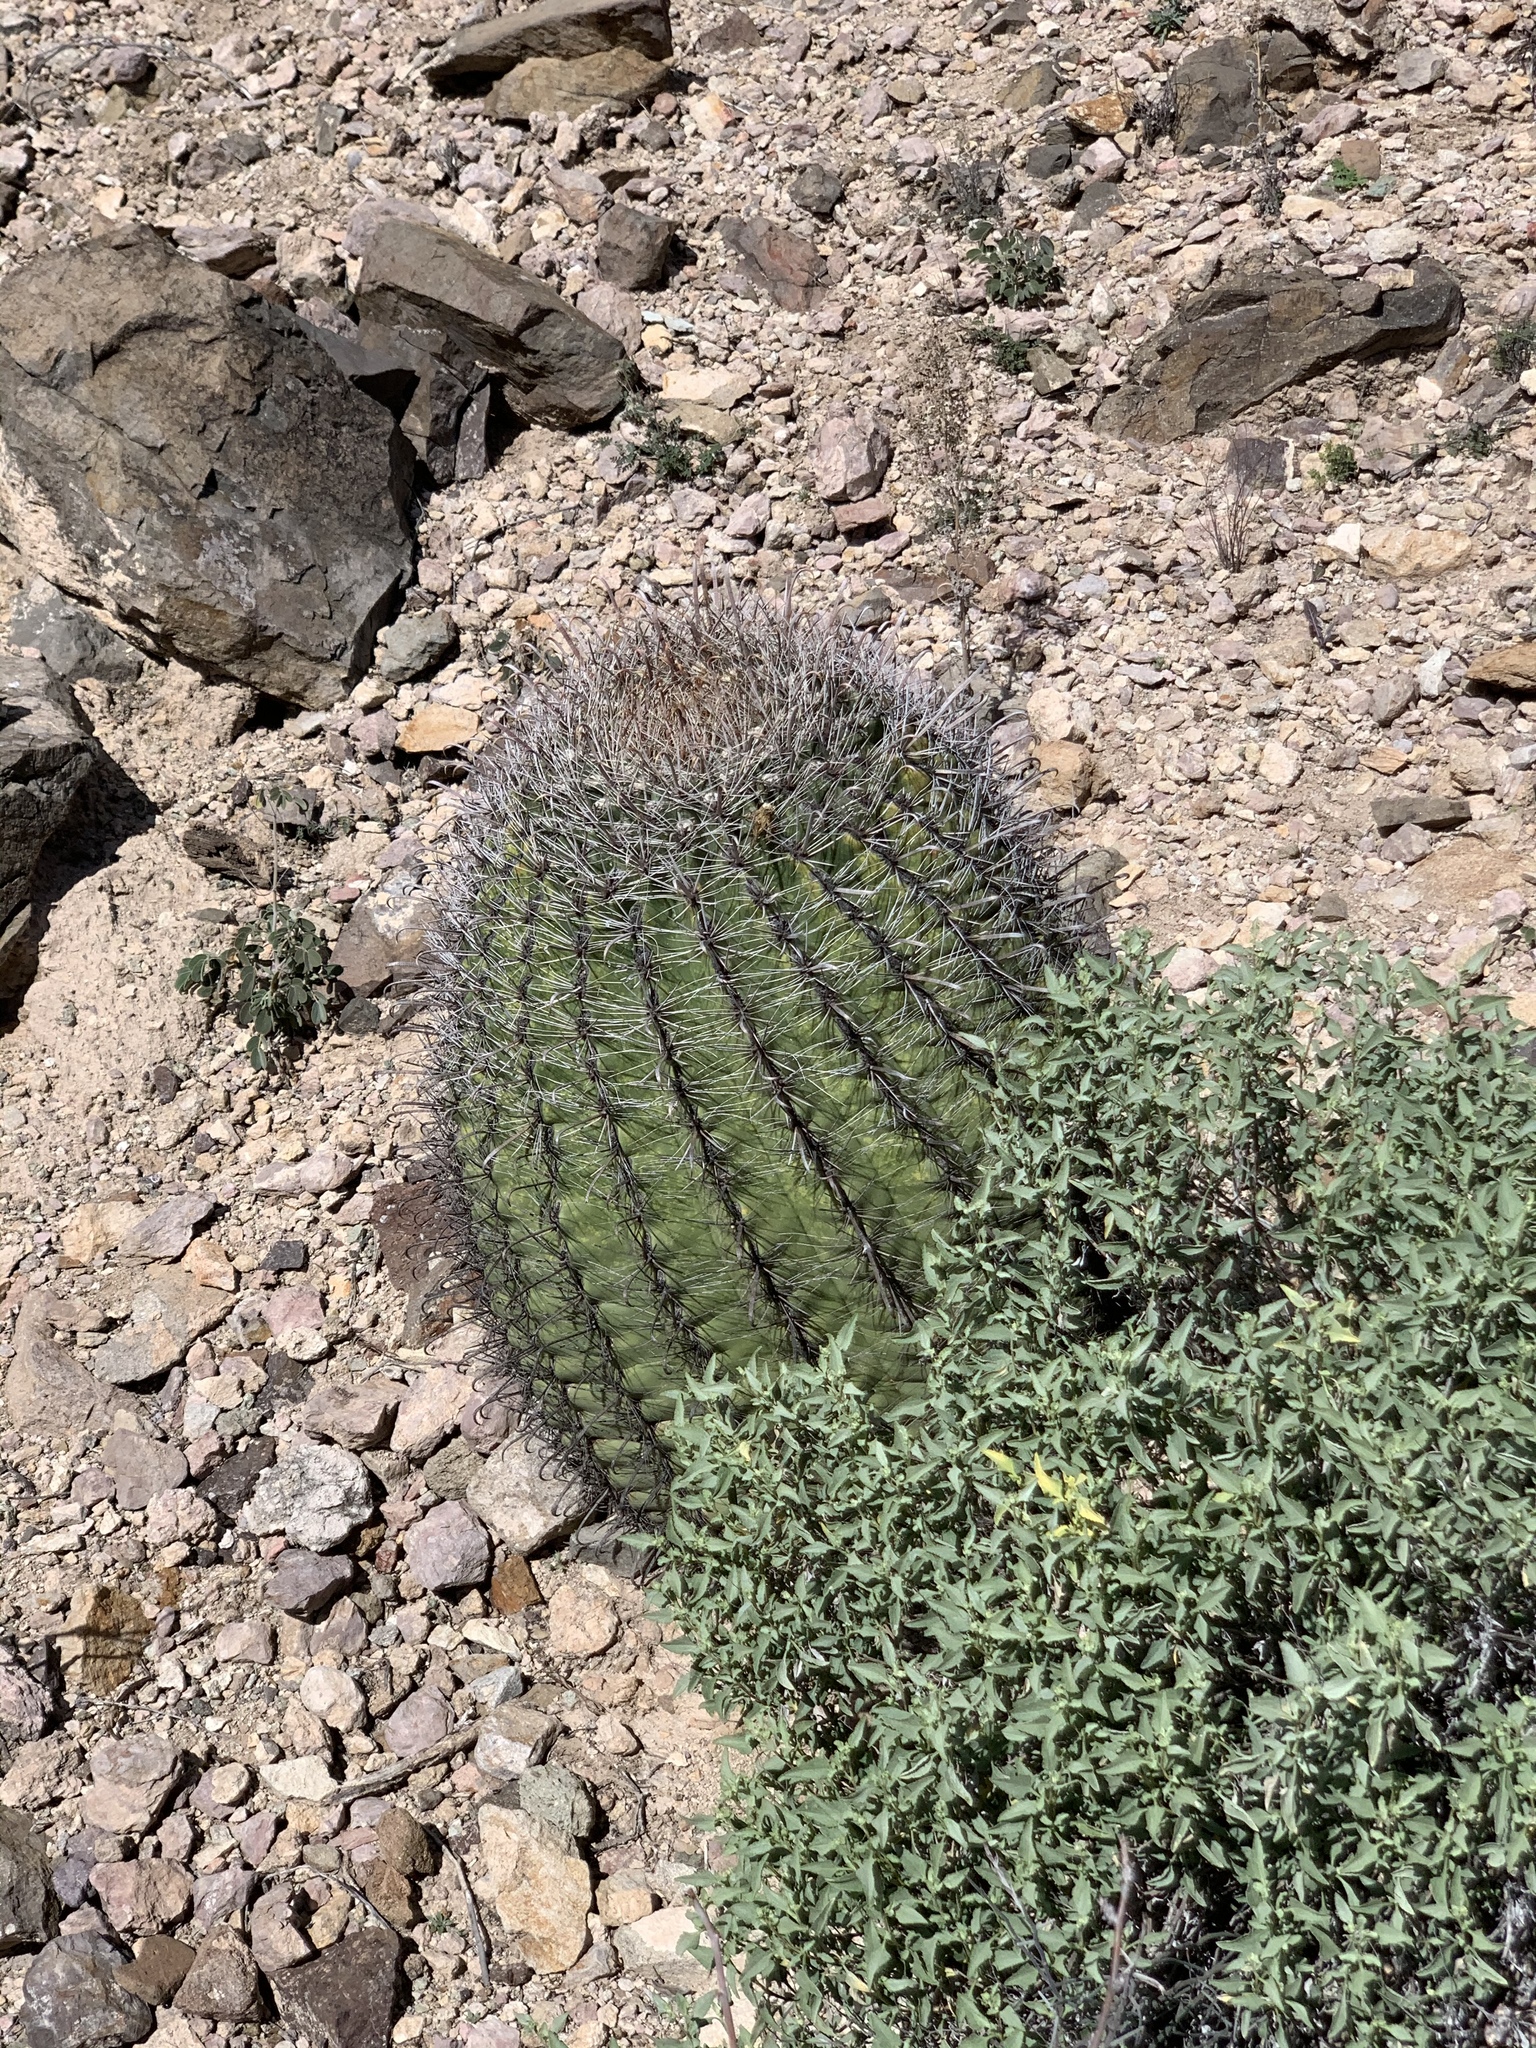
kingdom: Plantae
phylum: Tracheophyta
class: Magnoliopsida
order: Caryophyllales
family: Cactaceae
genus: Ferocactus
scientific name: Ferocactus wislizeni
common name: Candy barrel cactus
